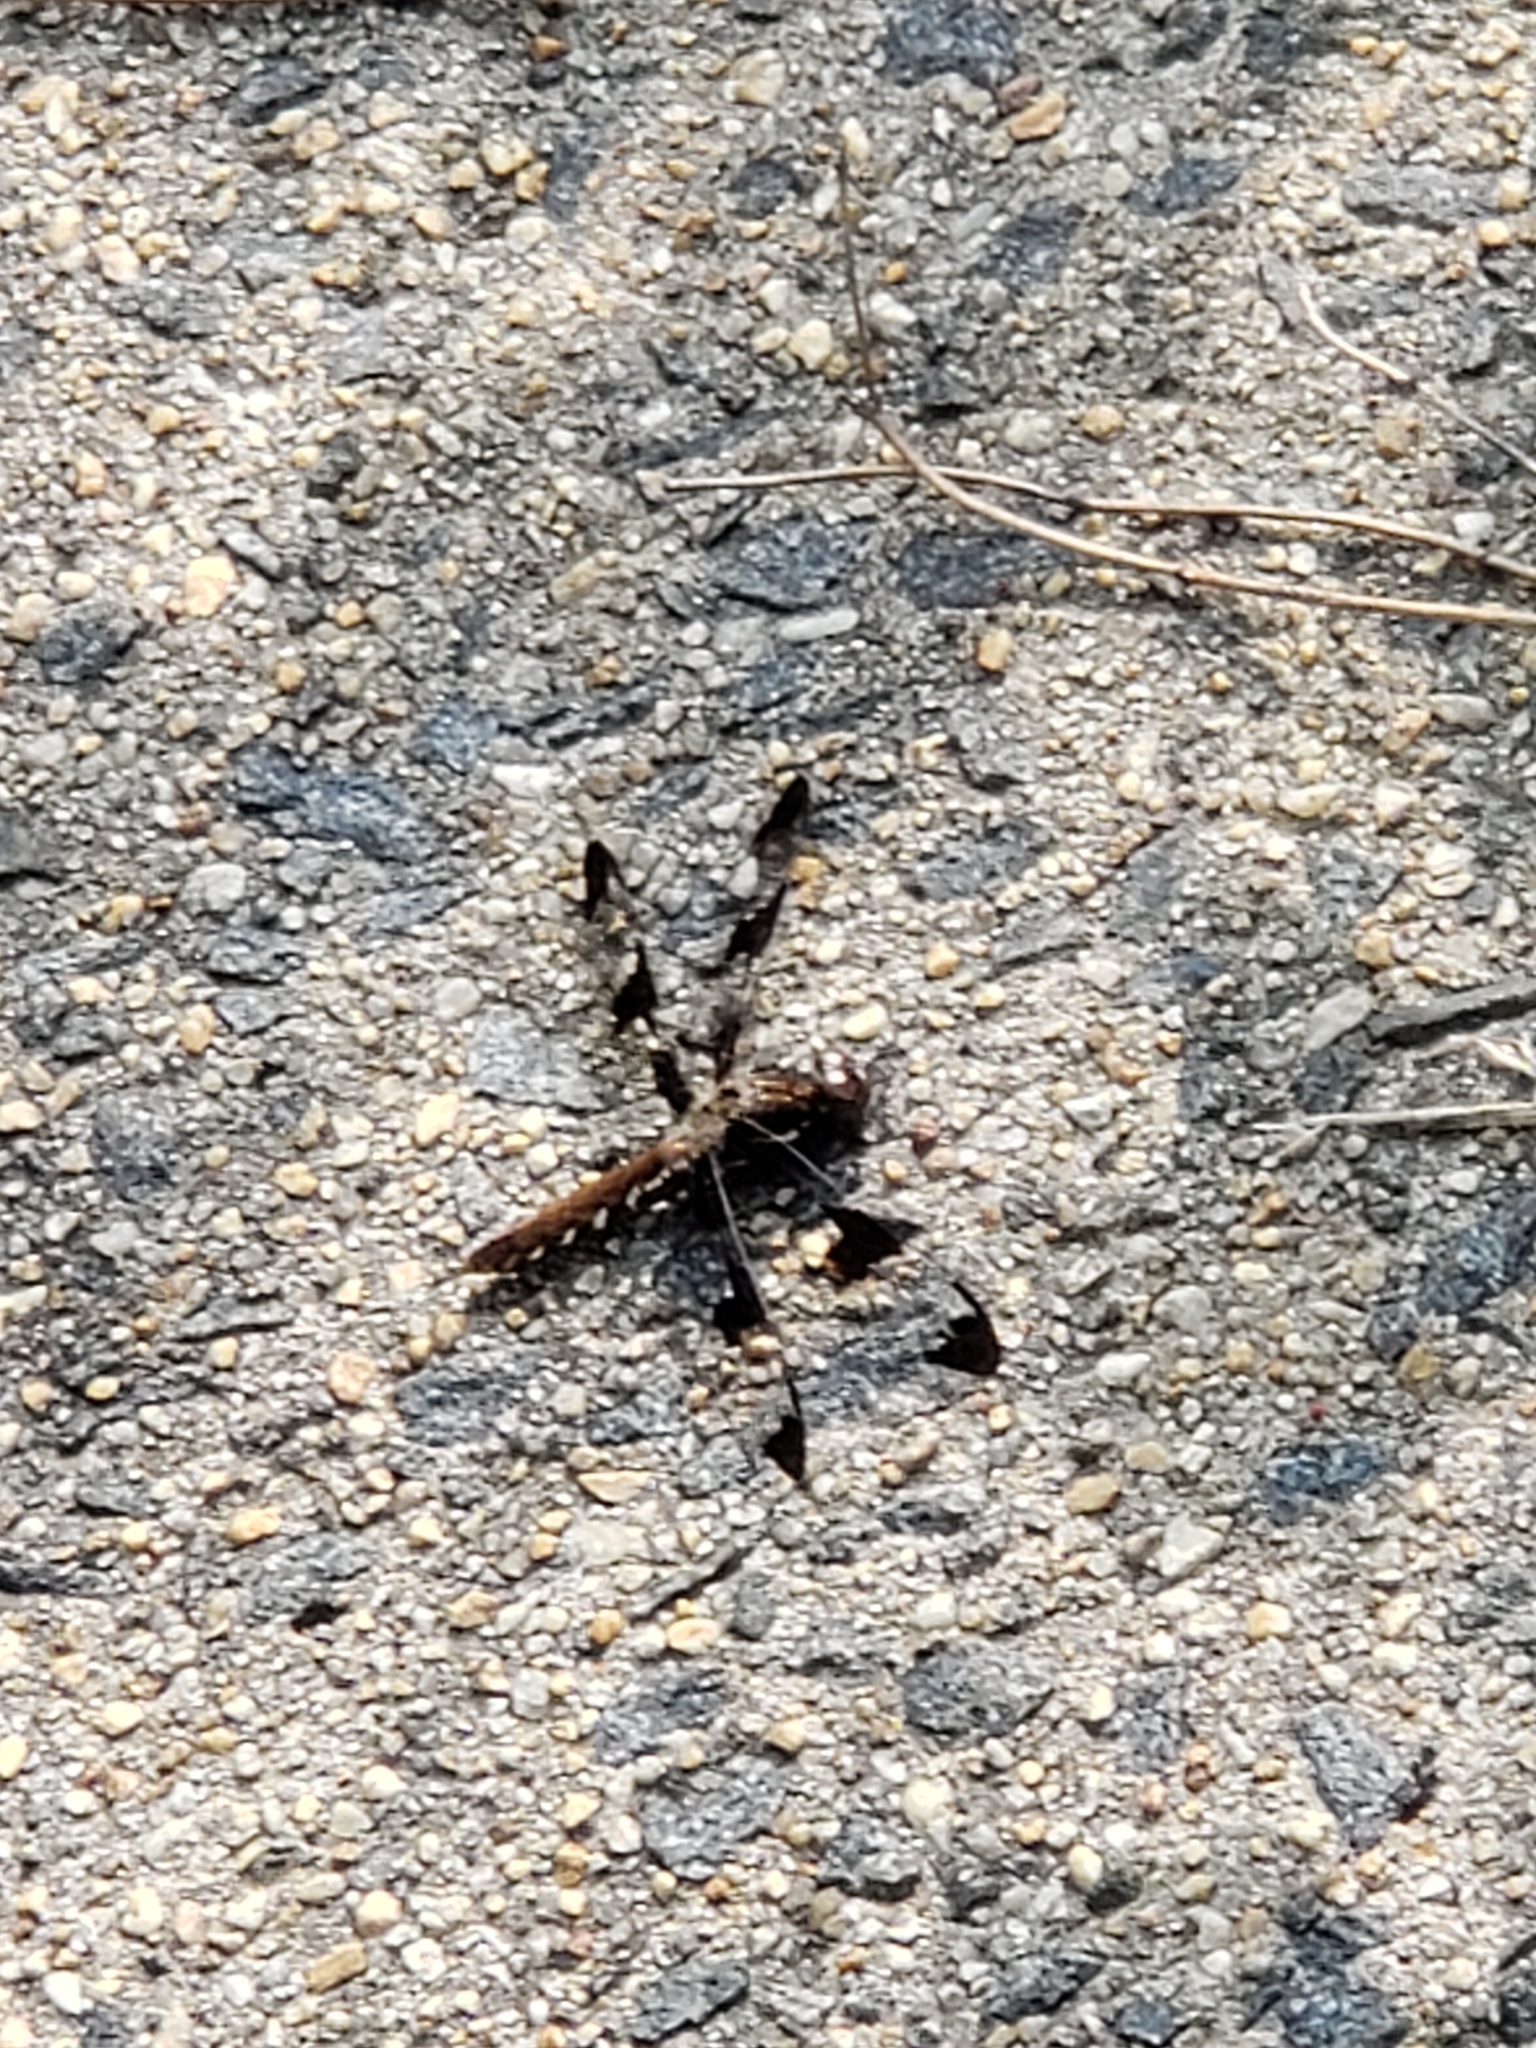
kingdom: Animalia
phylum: Arthropoda
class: Insecta
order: Odonata
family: Libellulidae
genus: Plathemis
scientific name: Plathemis lydia
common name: Common whitetail
